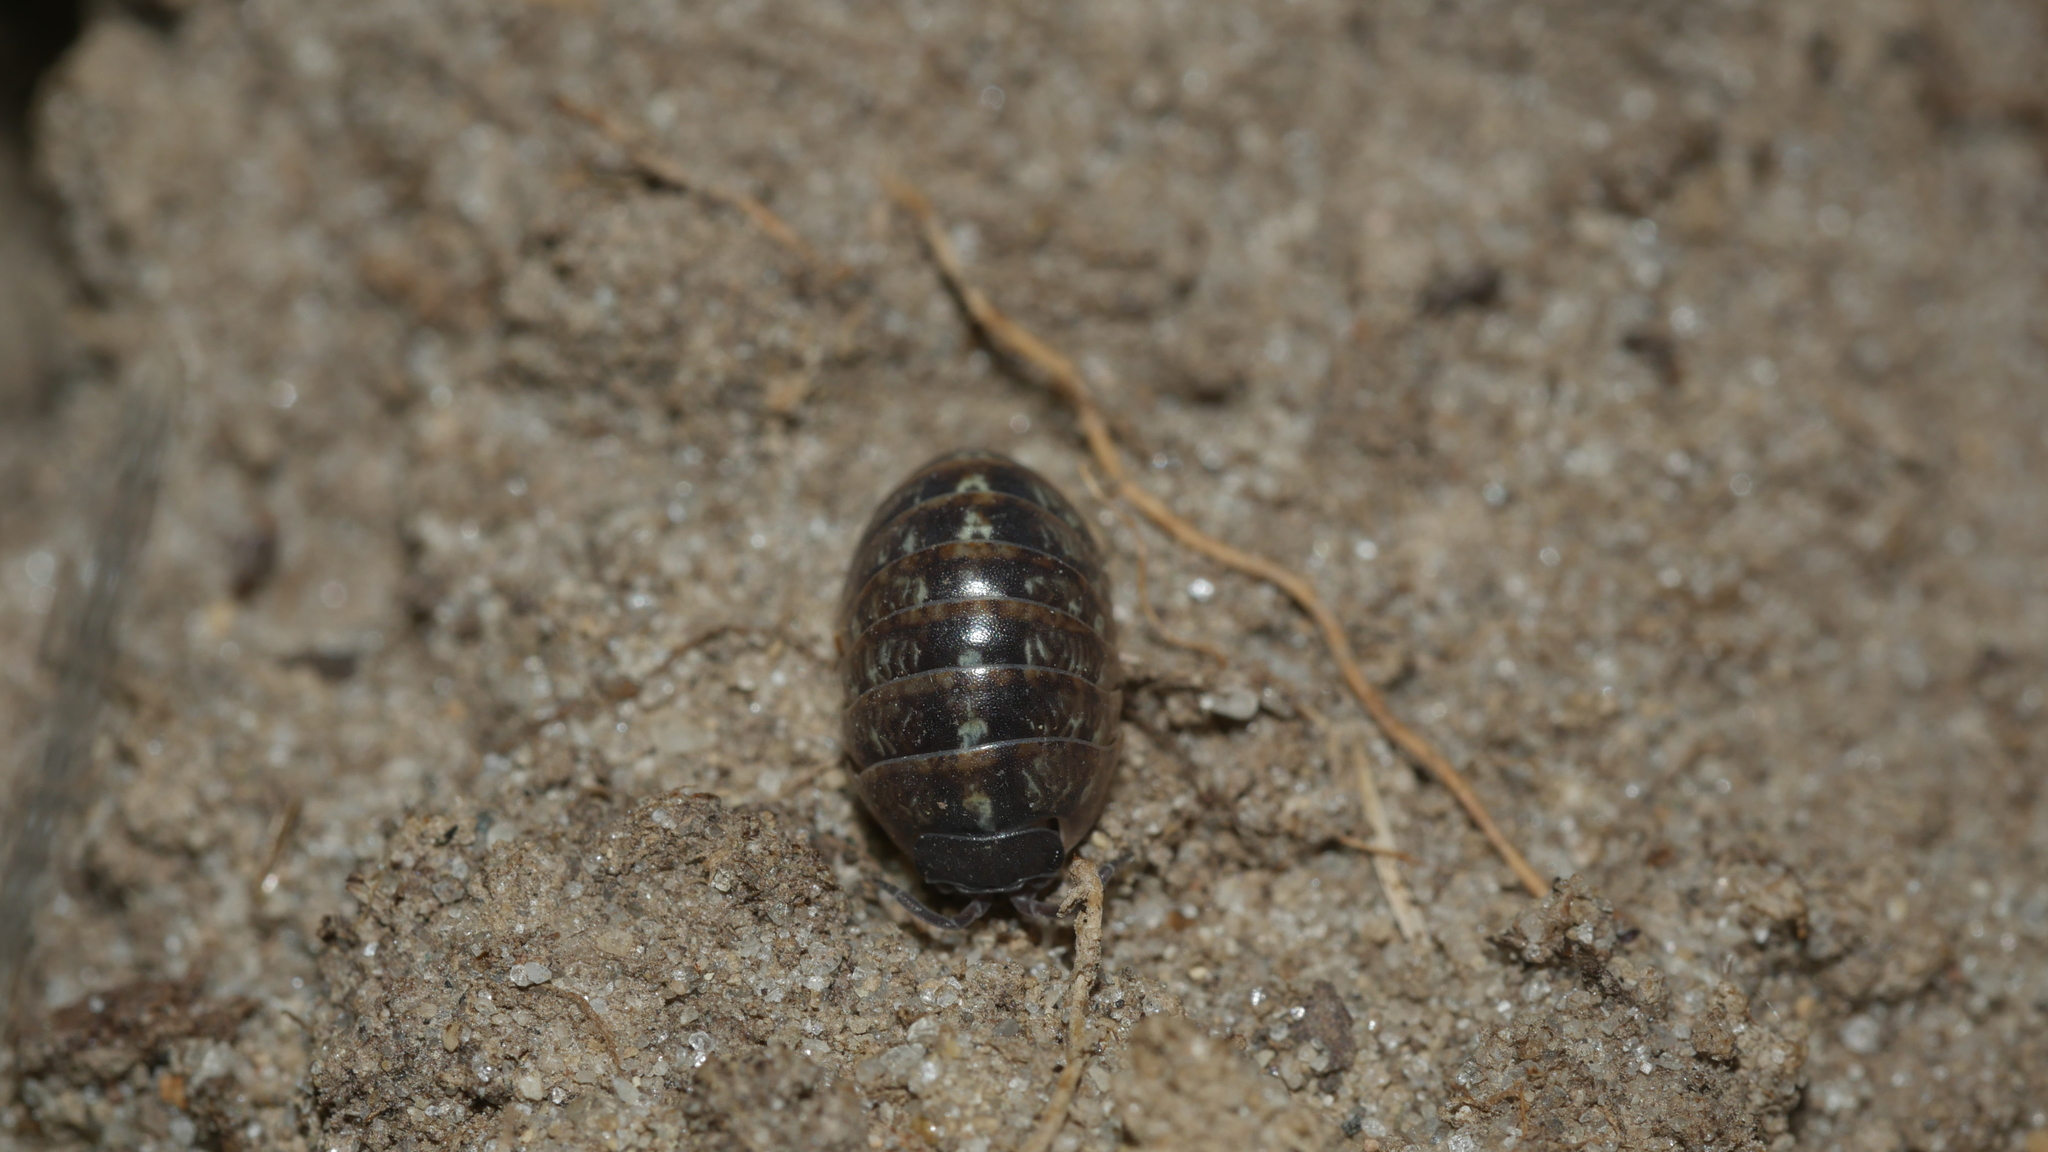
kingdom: Animalia
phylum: Arthropoda
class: Malacostraca
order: Isopoda
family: Armadillidiidae
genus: Armadillidium
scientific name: Armadillidium vulgare
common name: Common pill woodlouse
